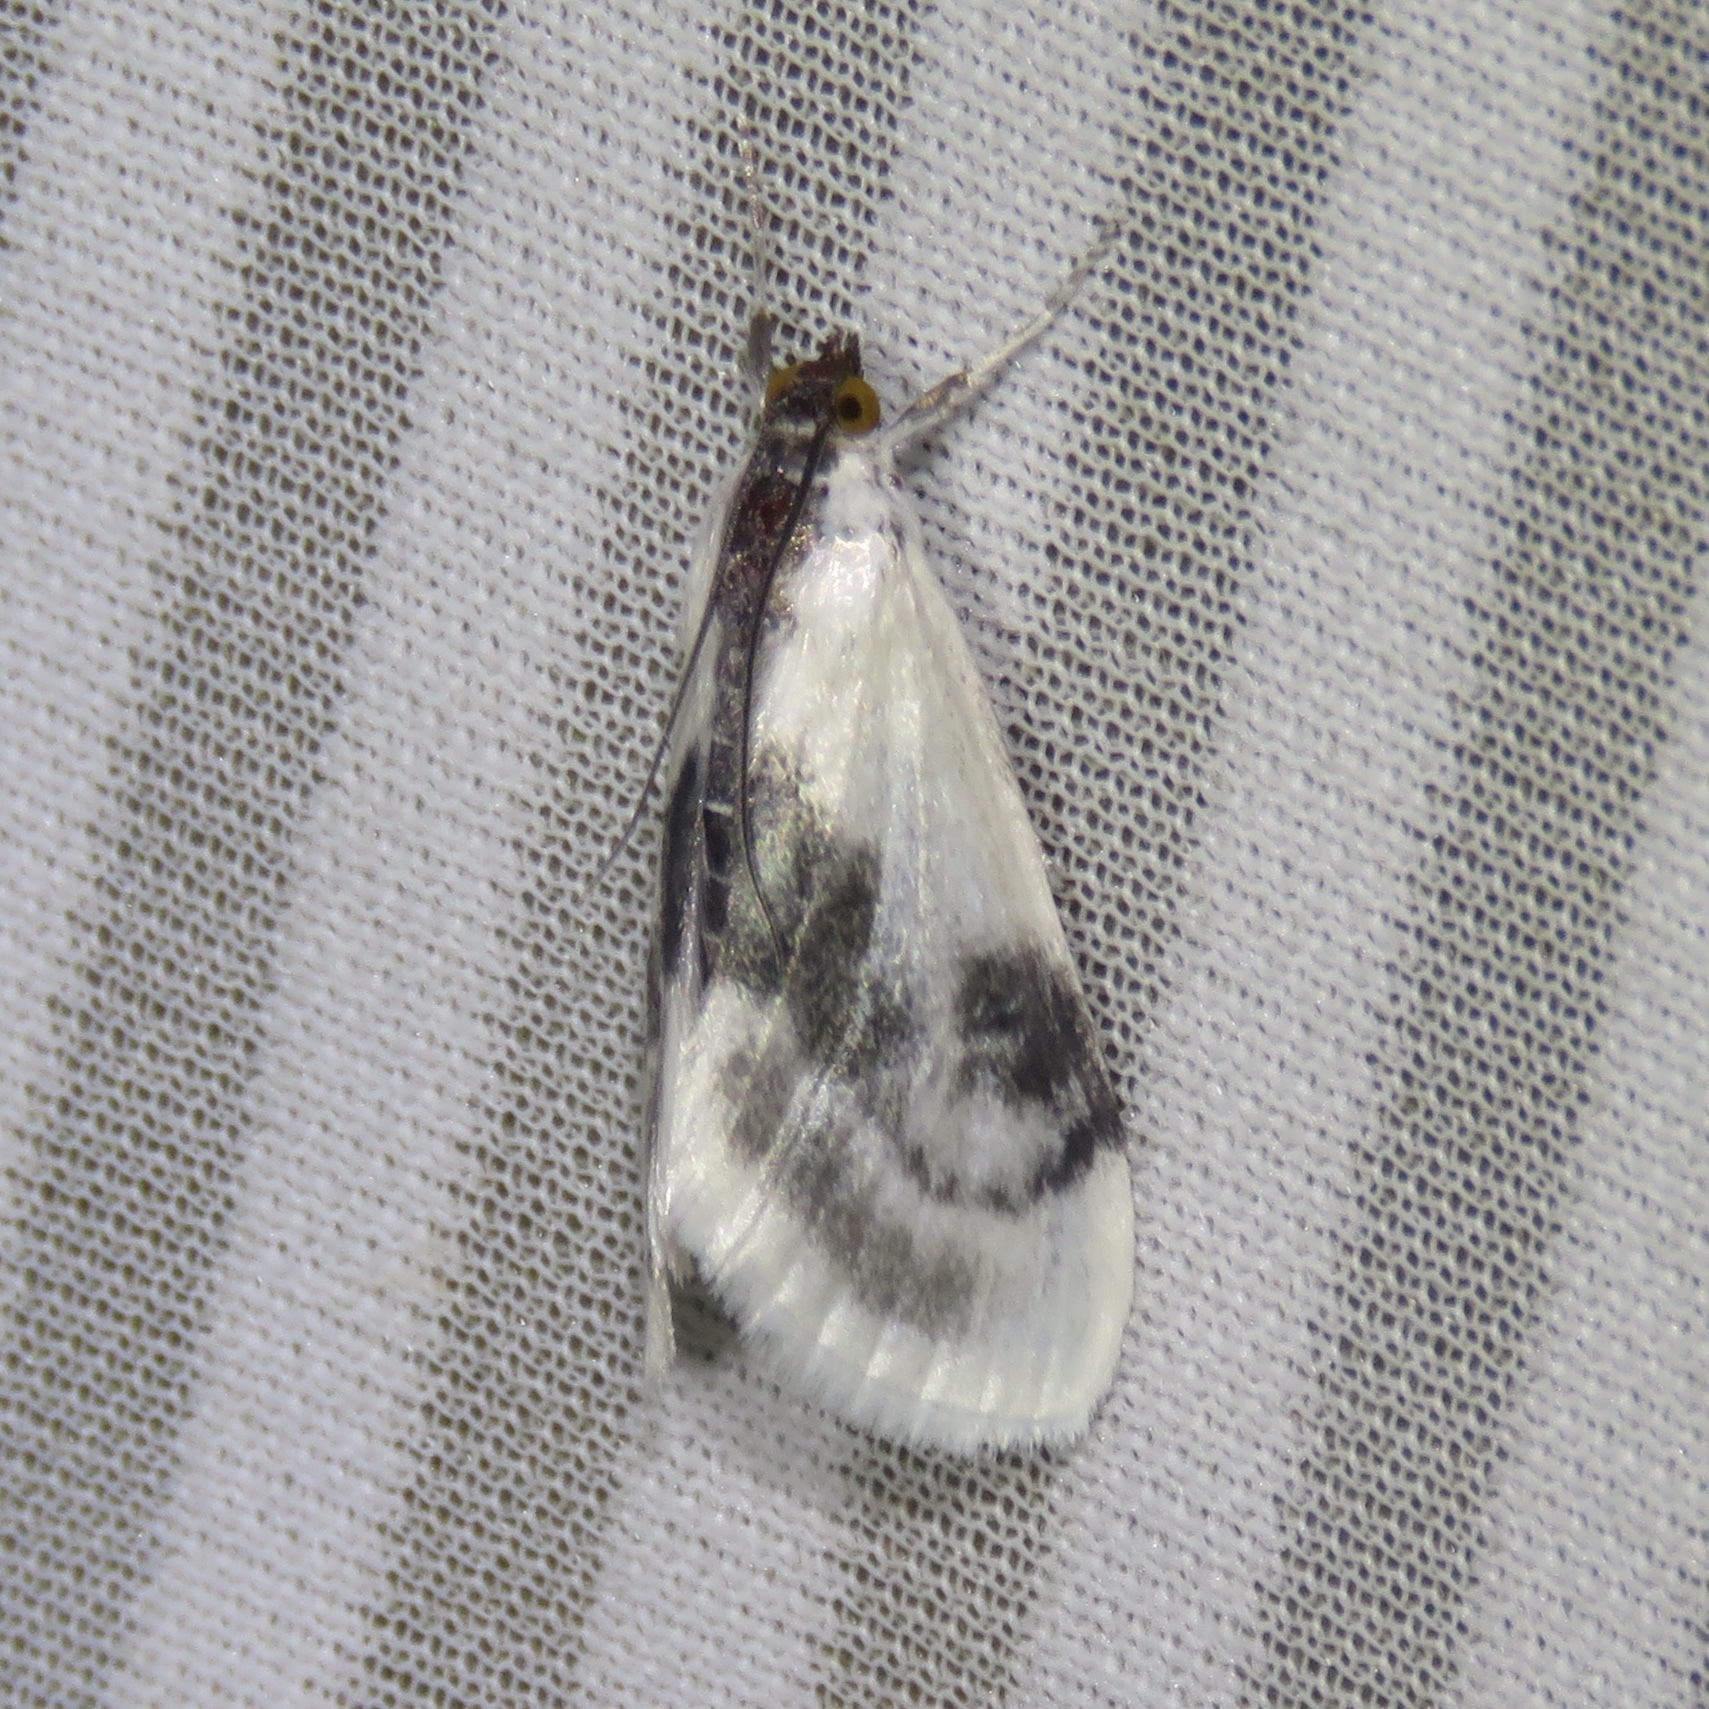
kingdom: Animalia
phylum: Arthropoda
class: Insecta
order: Lepidoptera
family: Crambidae
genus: Cliniodes
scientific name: Cliniodes
